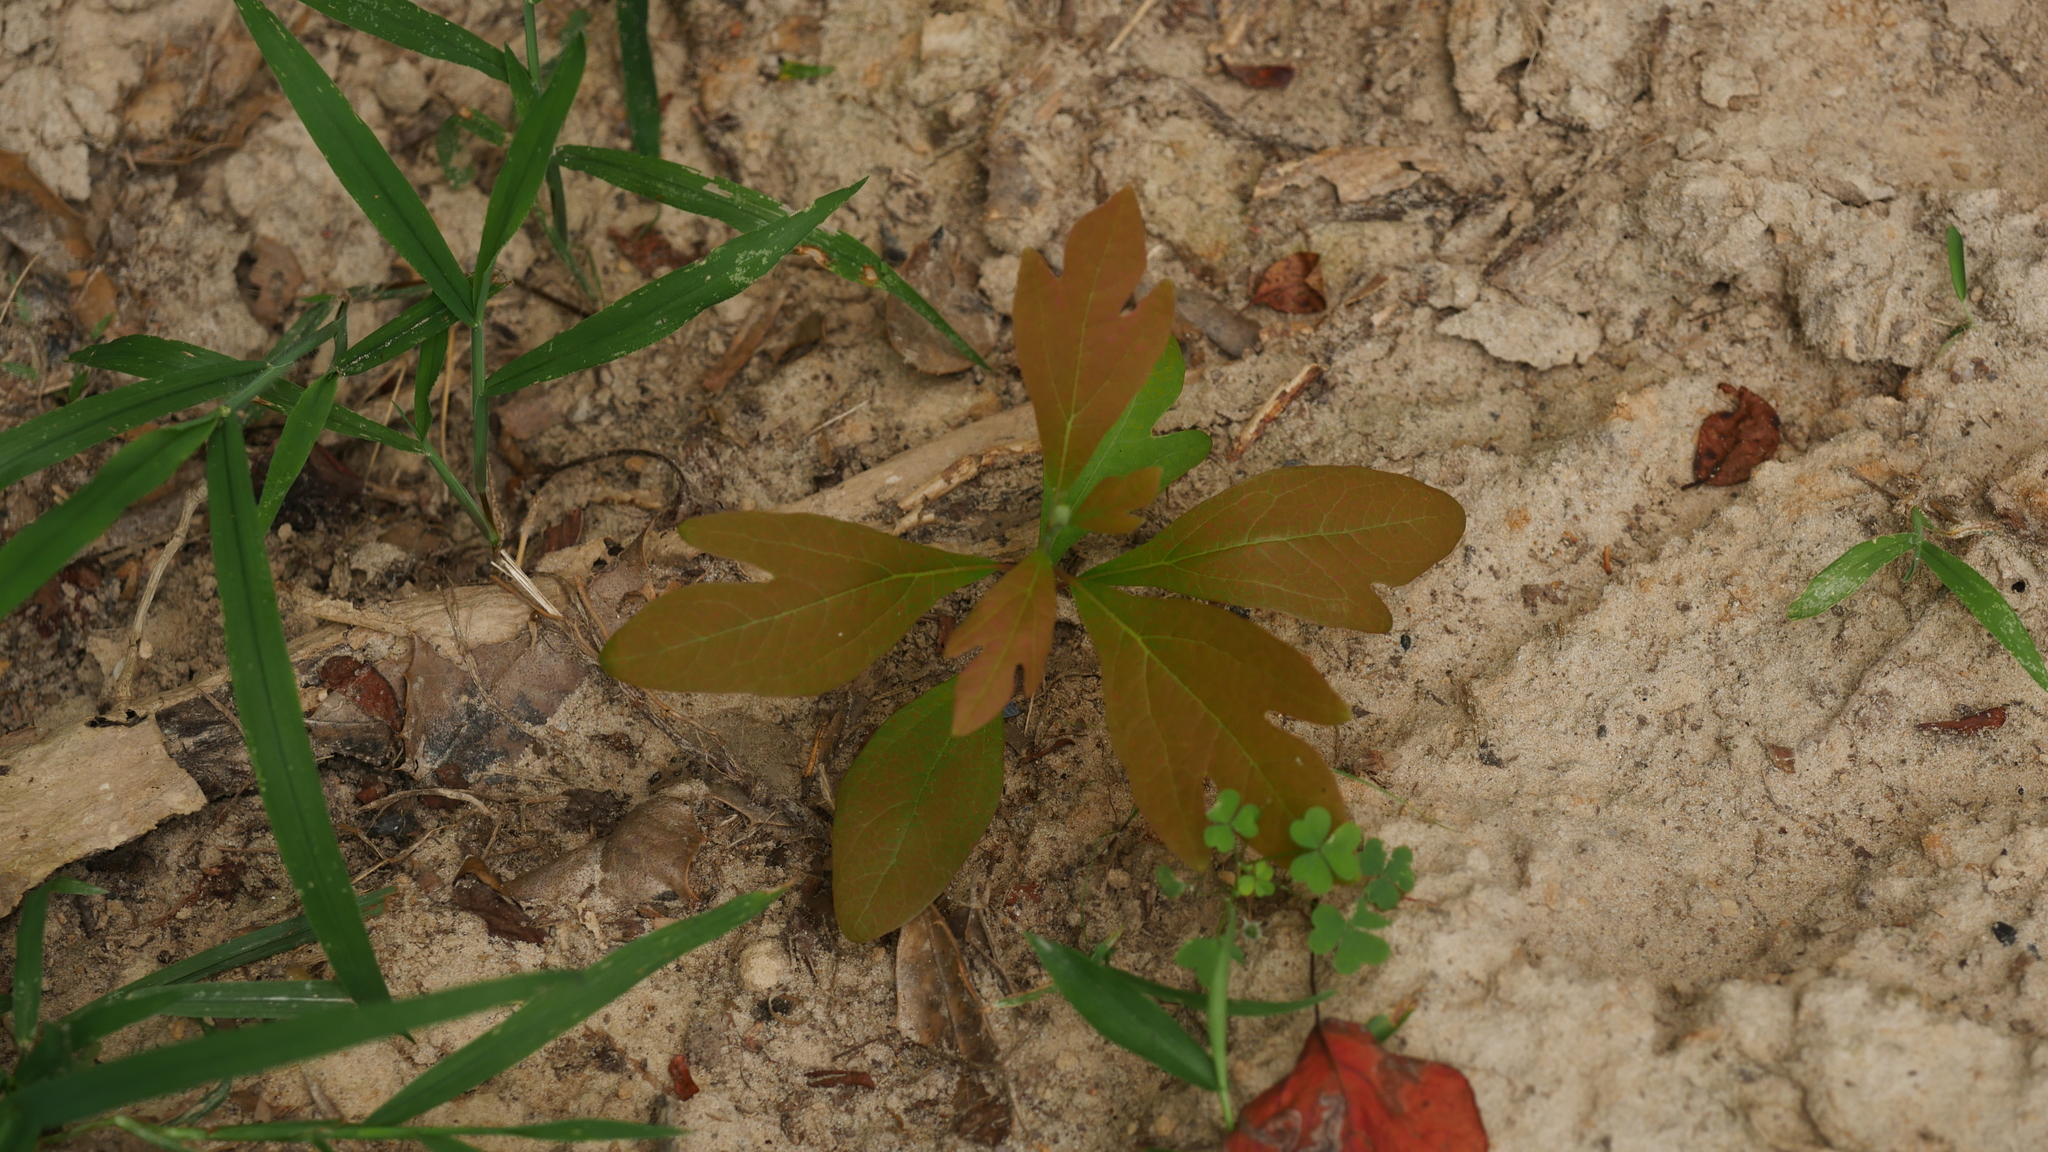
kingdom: Plantae
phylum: Tracheophyta
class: Magnoliopsida
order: Laurales
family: Lauraceae
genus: Sassafras
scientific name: Sassafras albidum
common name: Sassafras
